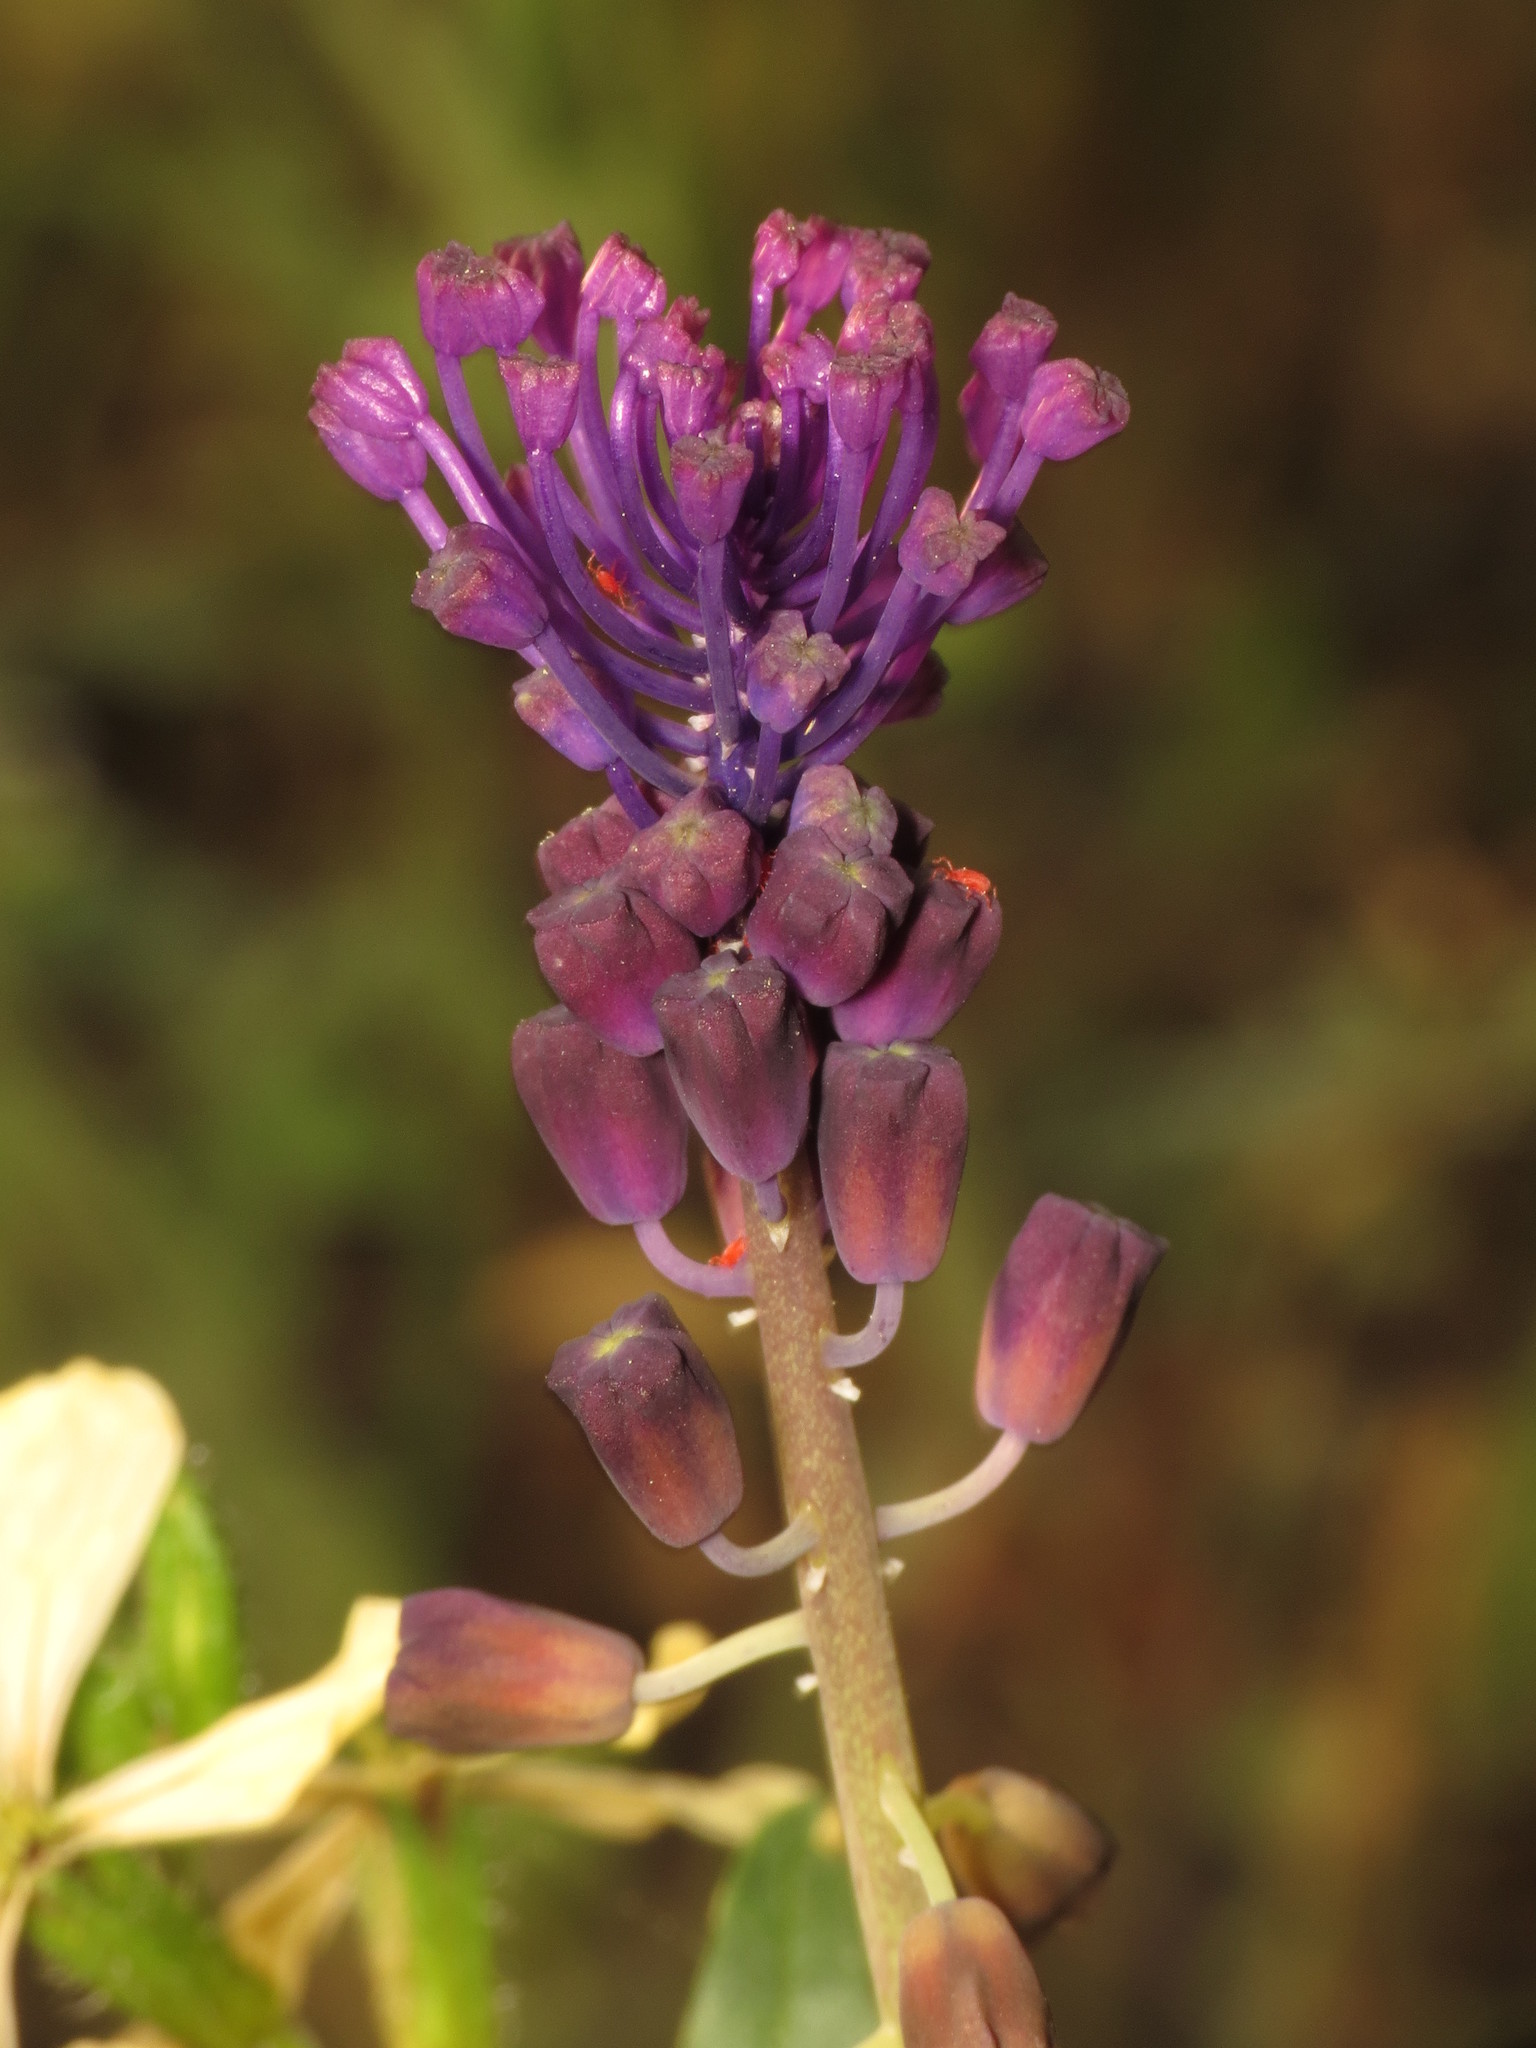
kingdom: Plantae
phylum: Tracheophyta
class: Liliopsida
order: Asparagales
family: Asparagaceae
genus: Muscari
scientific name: Muscari comosum
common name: Tassel hyacinth
